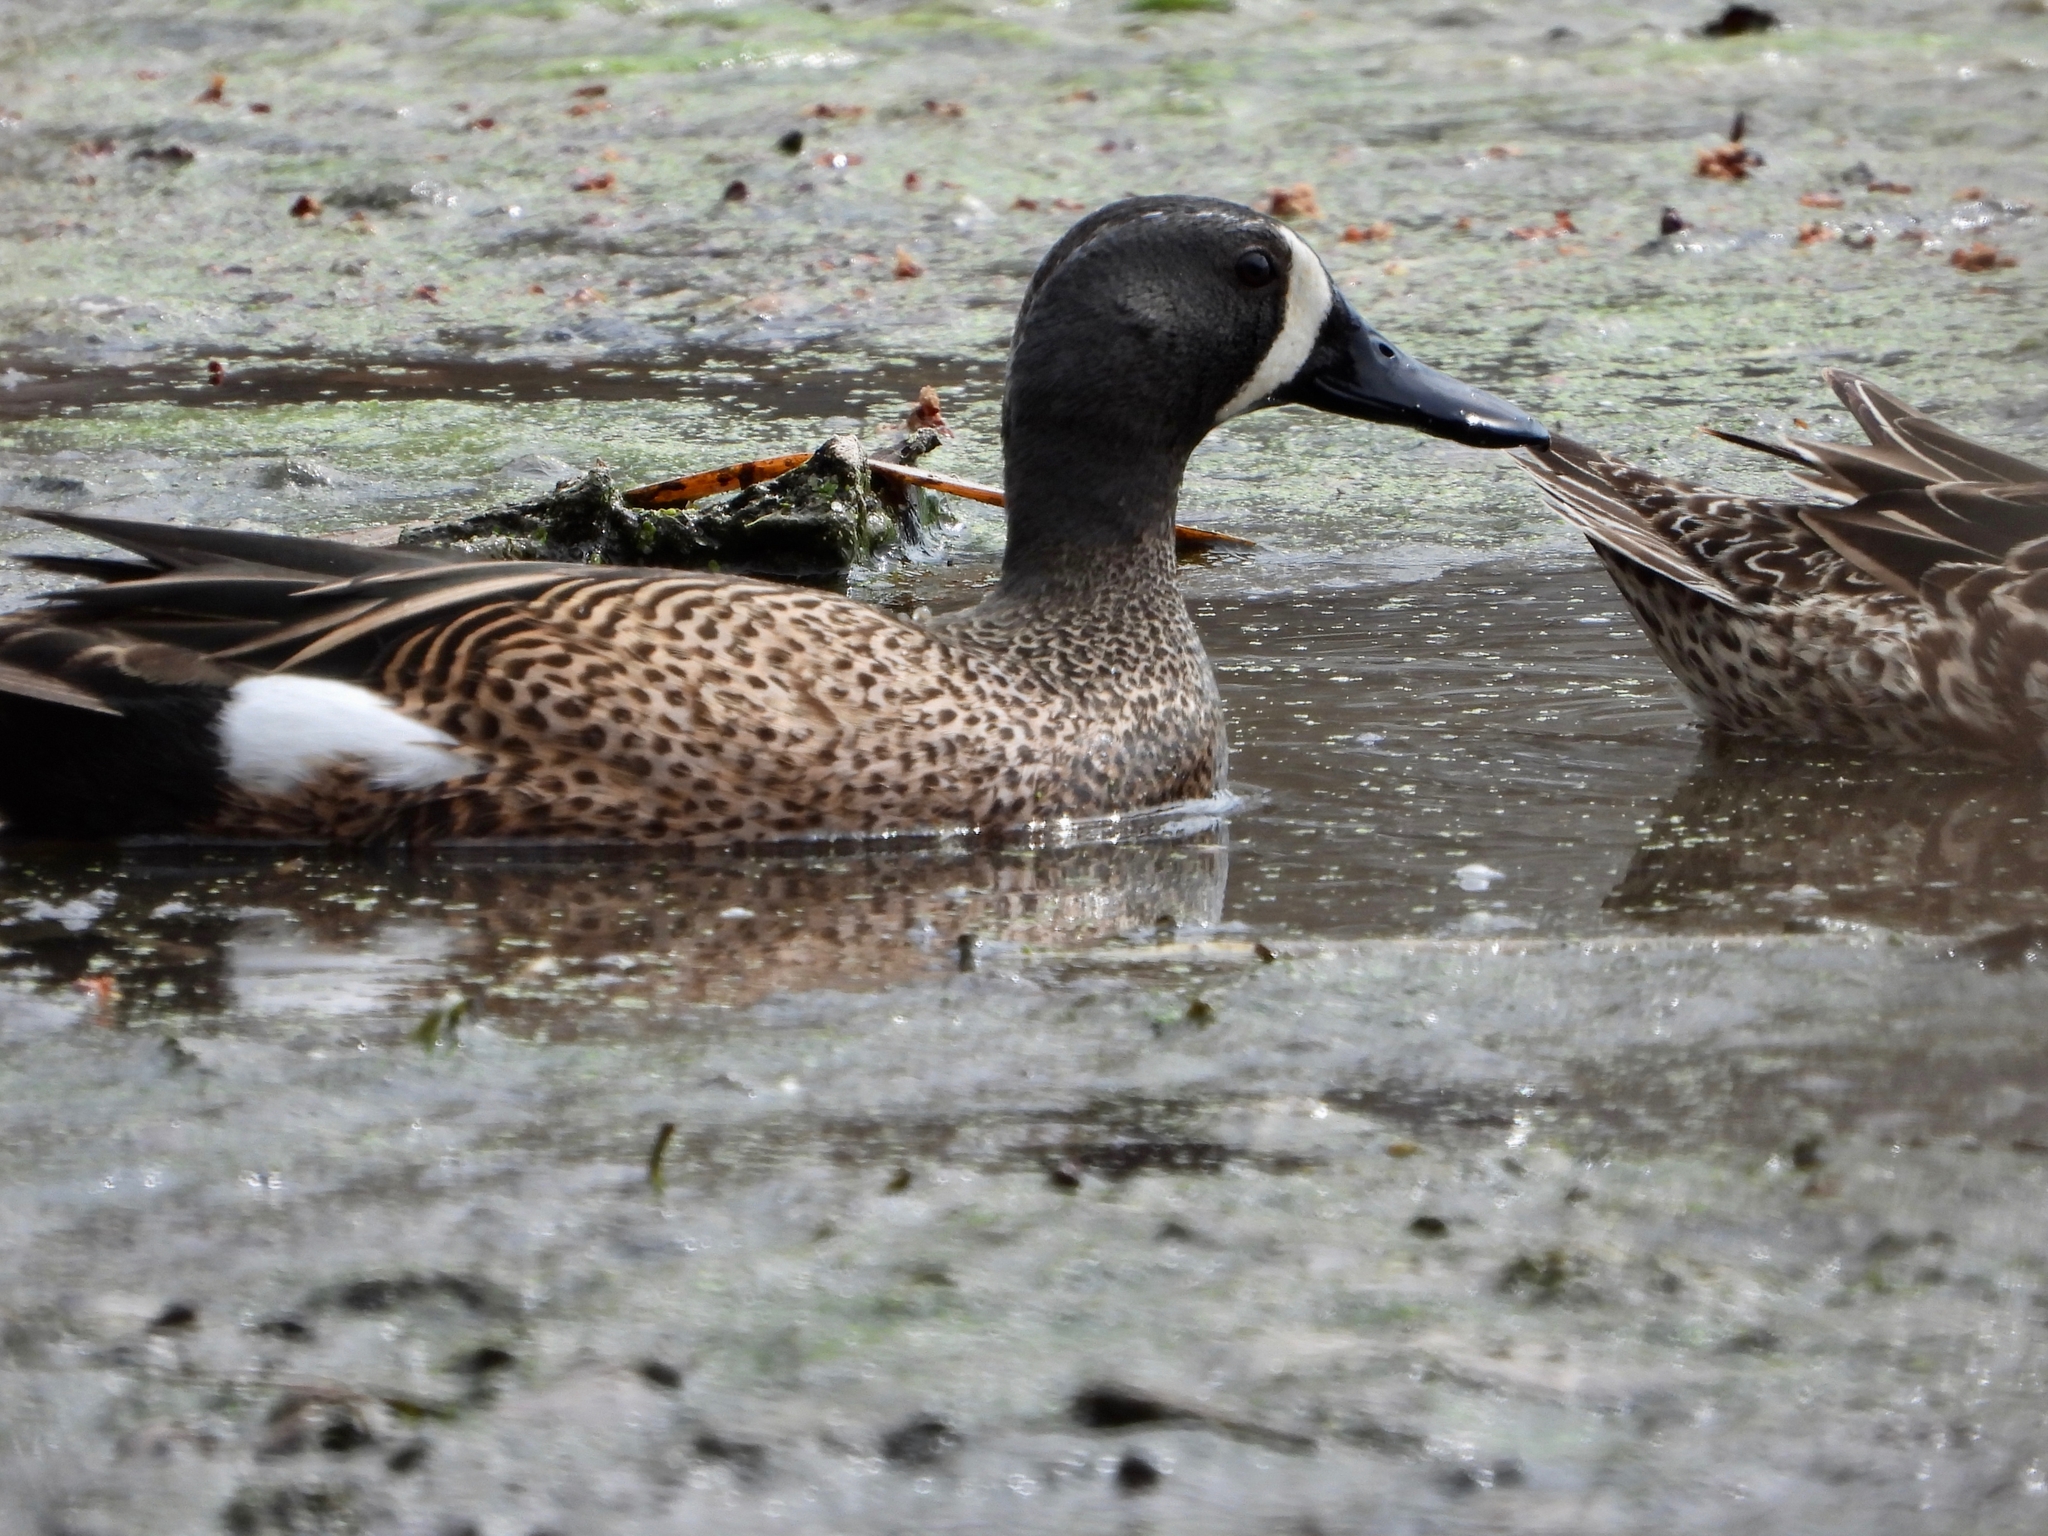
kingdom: Animalia
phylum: Chordata
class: Aves
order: Anseriformes
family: Anatidae
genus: Spatula
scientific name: Spatula discors
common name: Blue-winged teal
